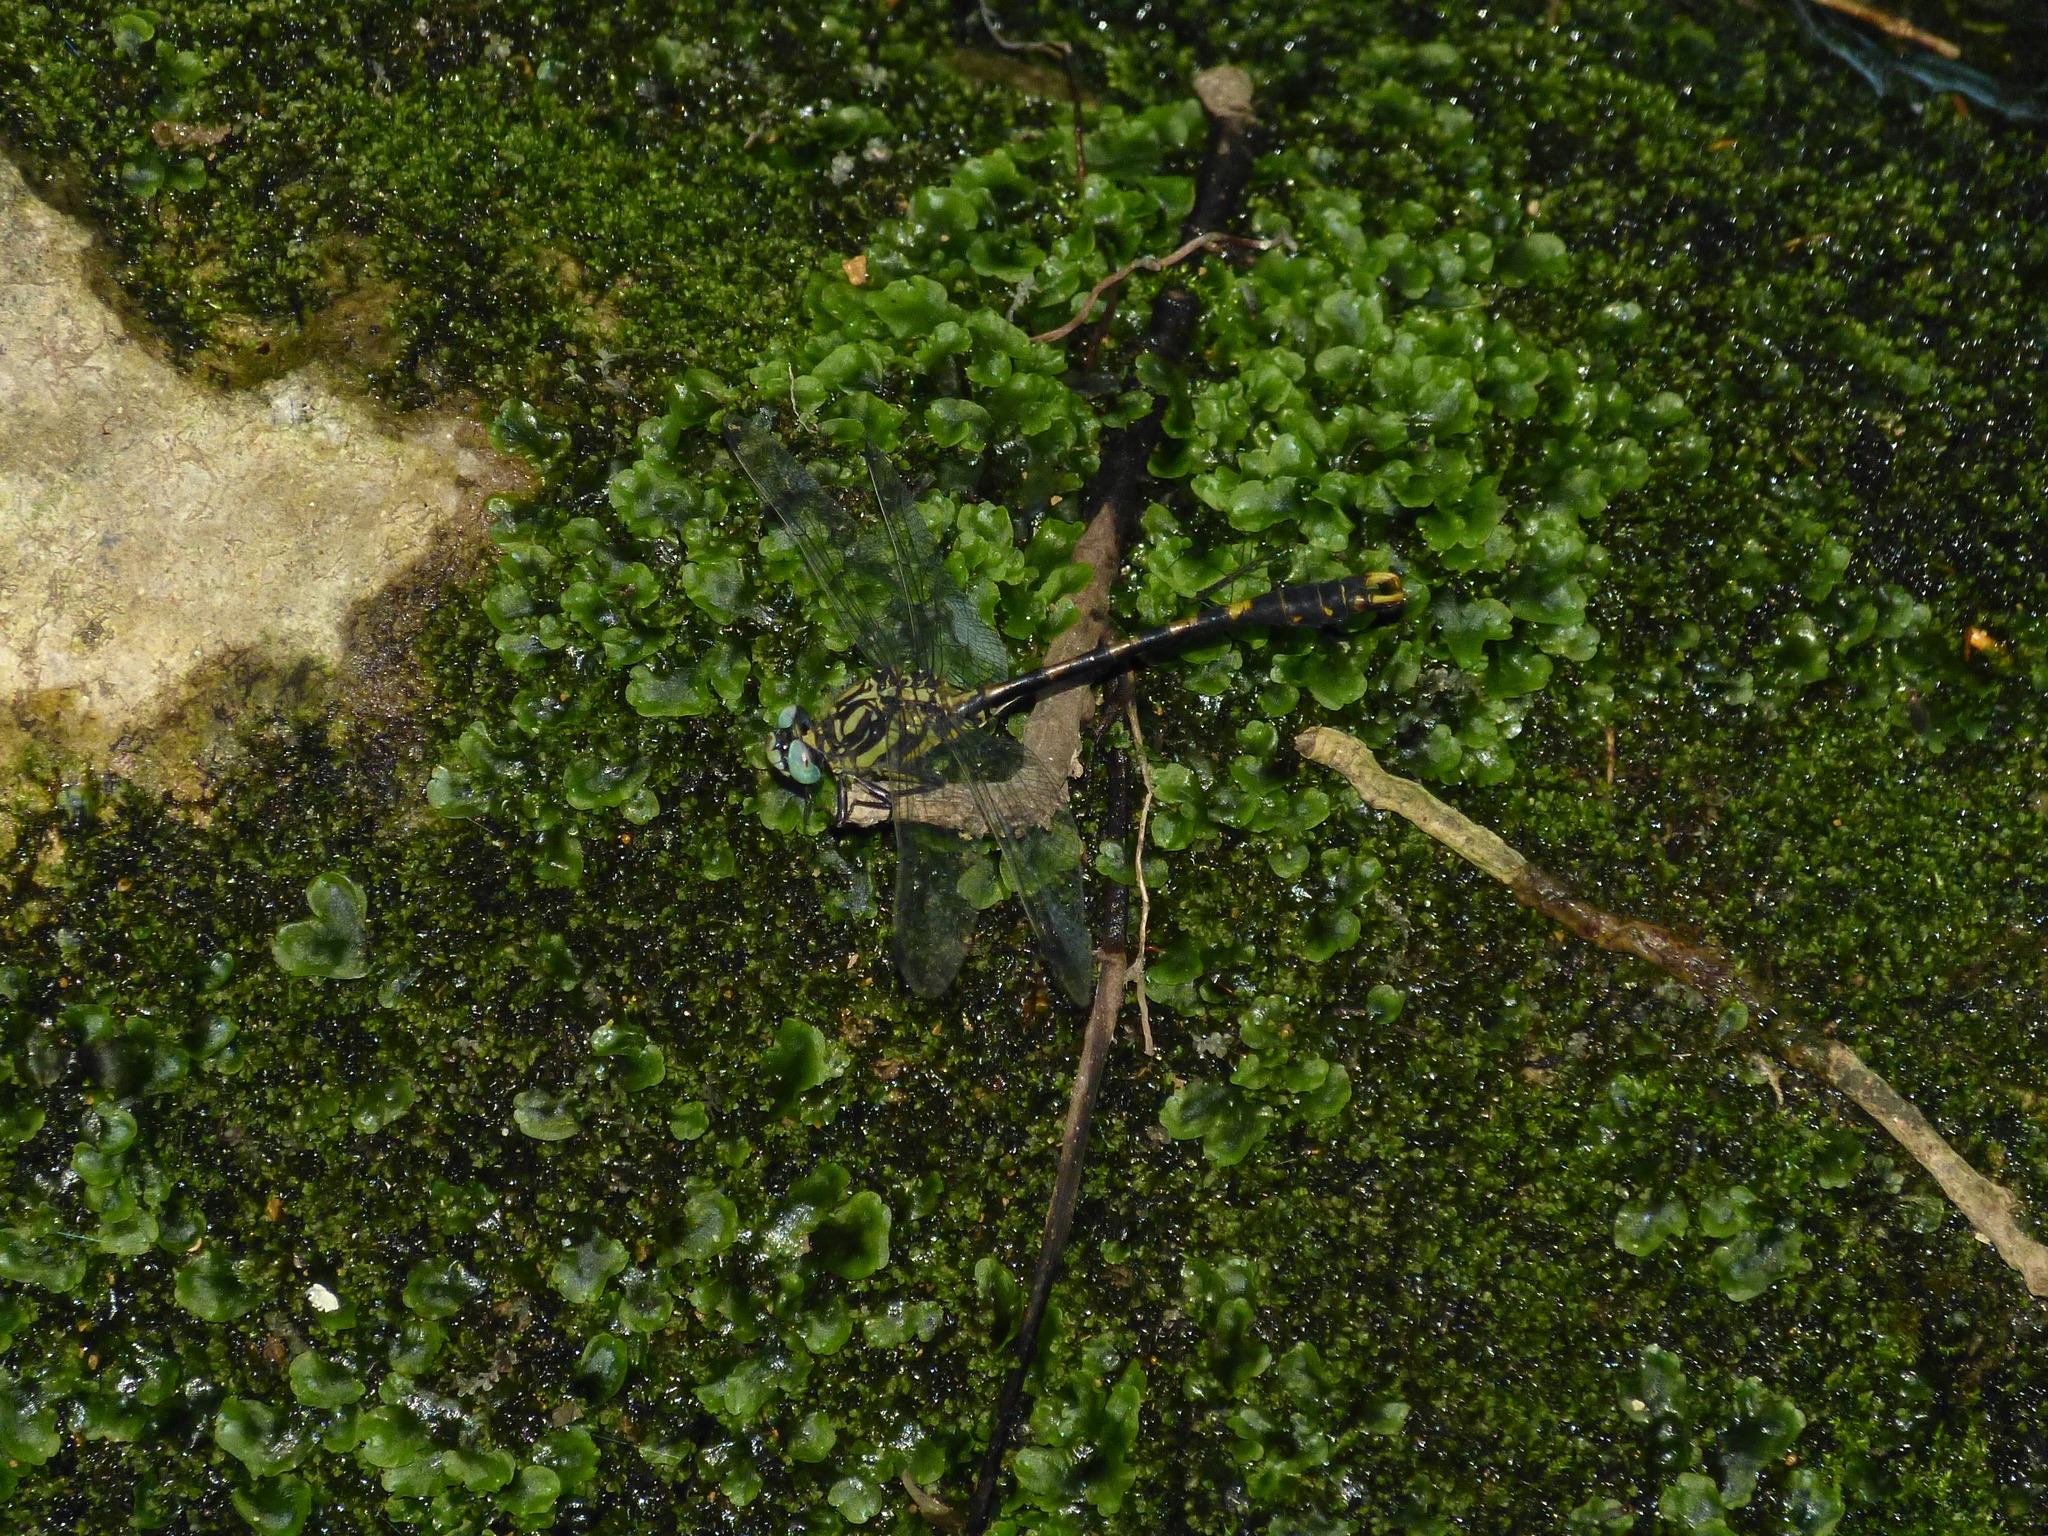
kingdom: Animalia
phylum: Arthropoda
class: Insecta
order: Odonata
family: Gomphidae
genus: Onychogomphus
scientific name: Onychogomphus uncatus
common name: Large pincertail
